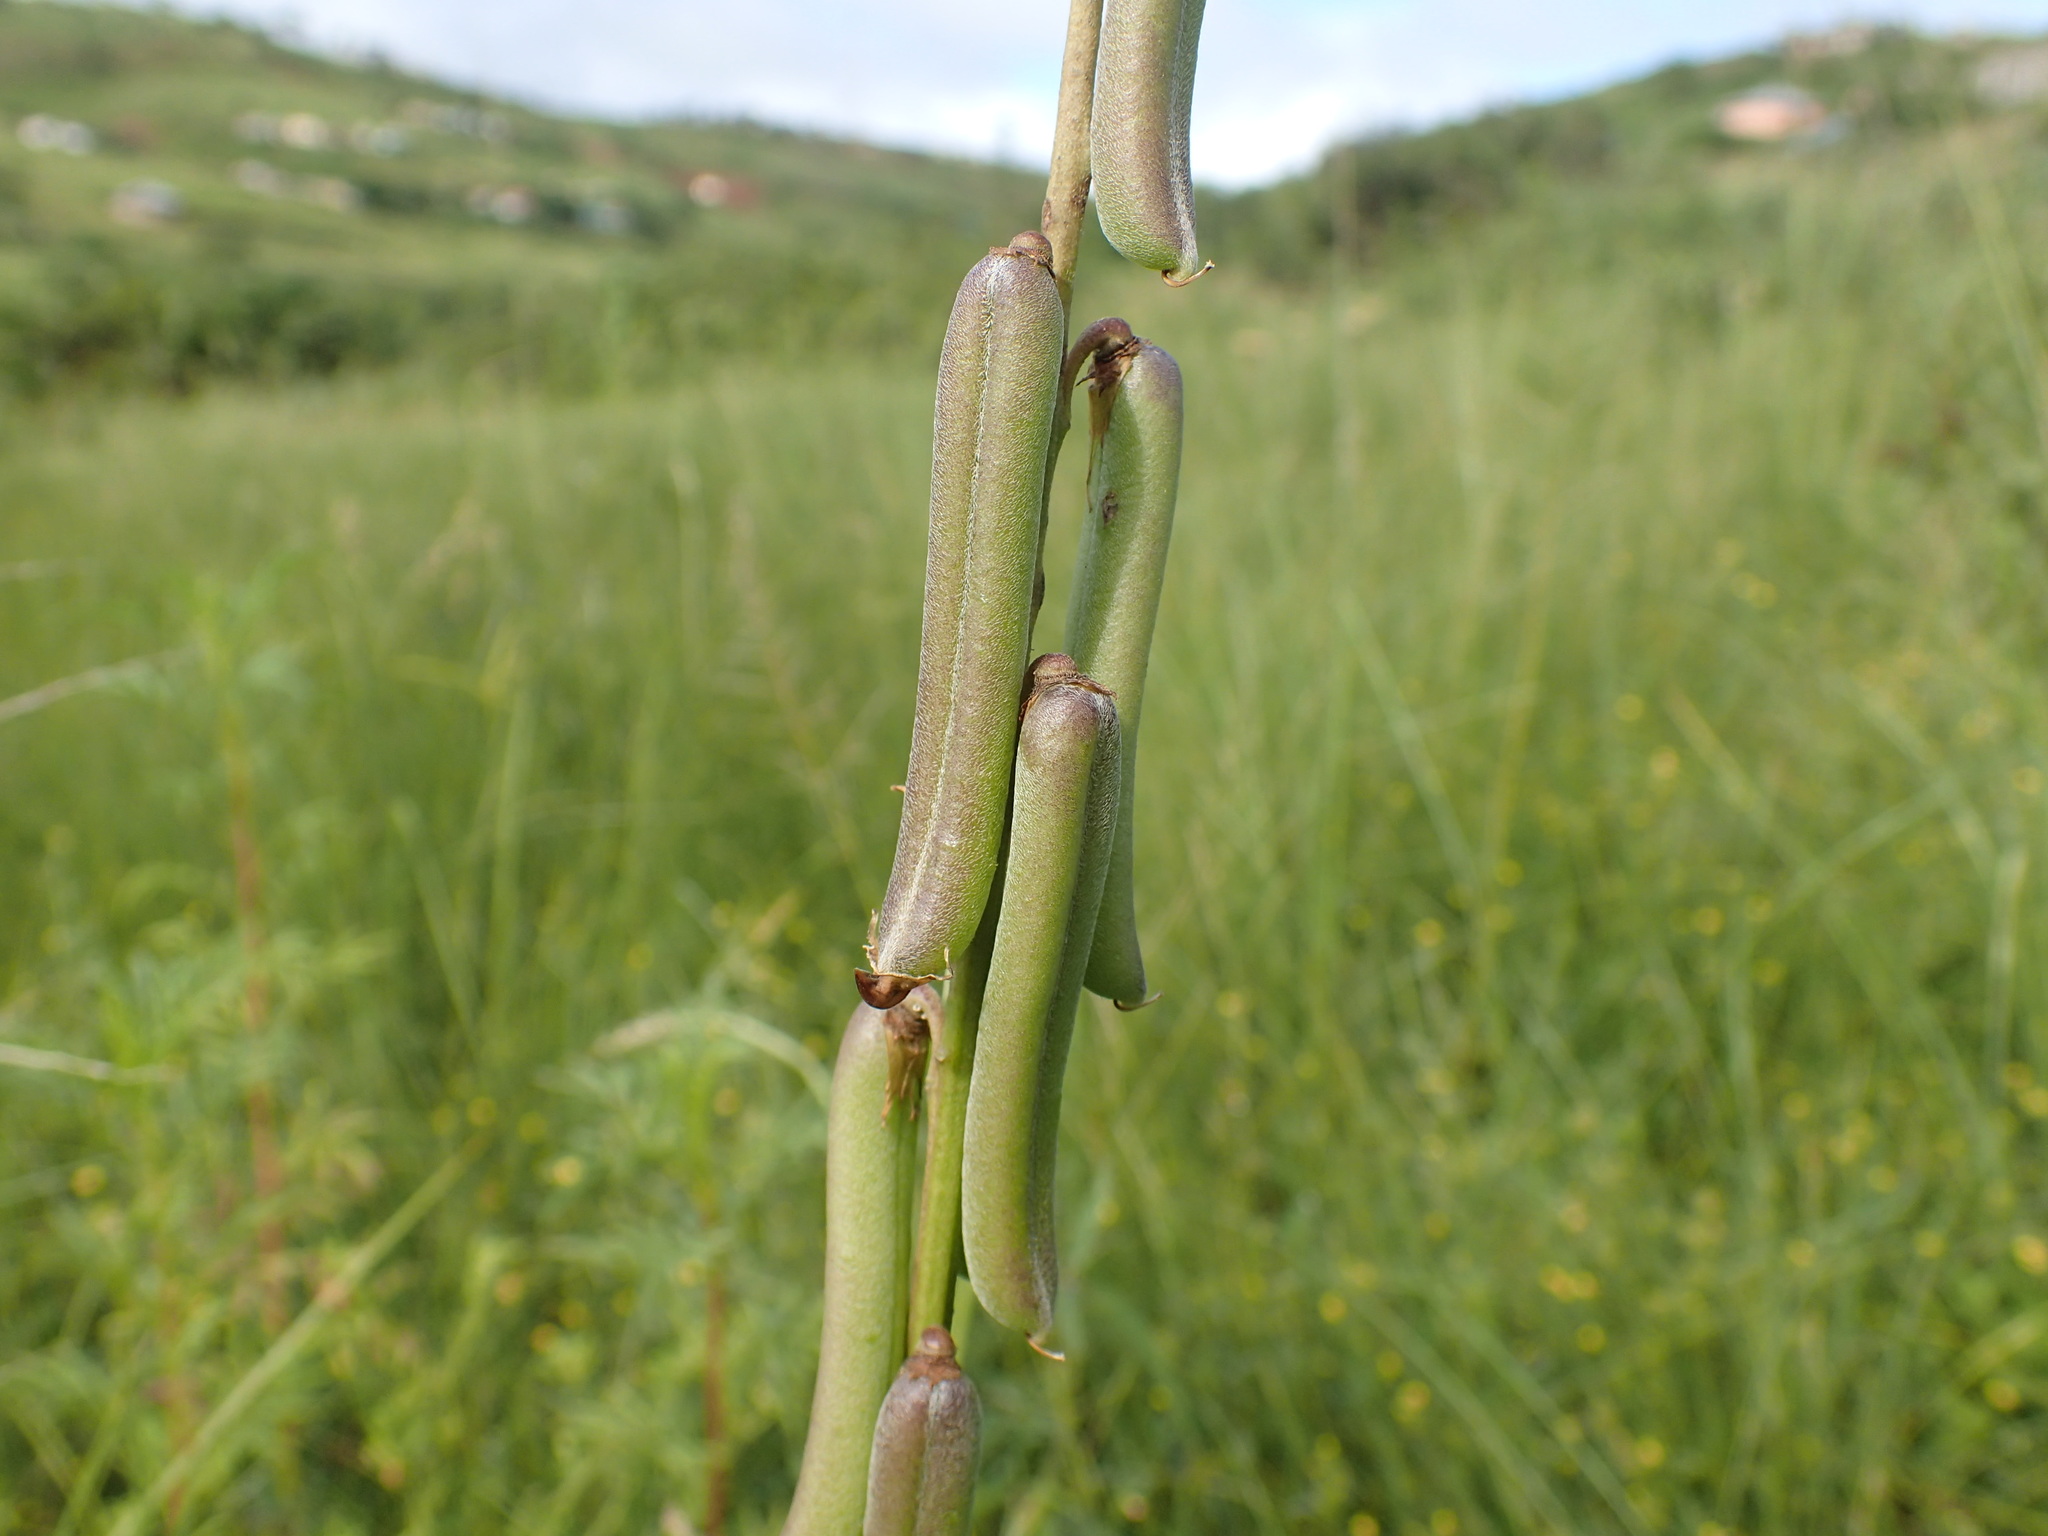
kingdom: Plantae
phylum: Tracheophyta
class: Magnoliopsida
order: Fabales
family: Fabaceae
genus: Crotalaria
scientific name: Crotalaria lanceolata
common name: Lanceleaf rattlebox
